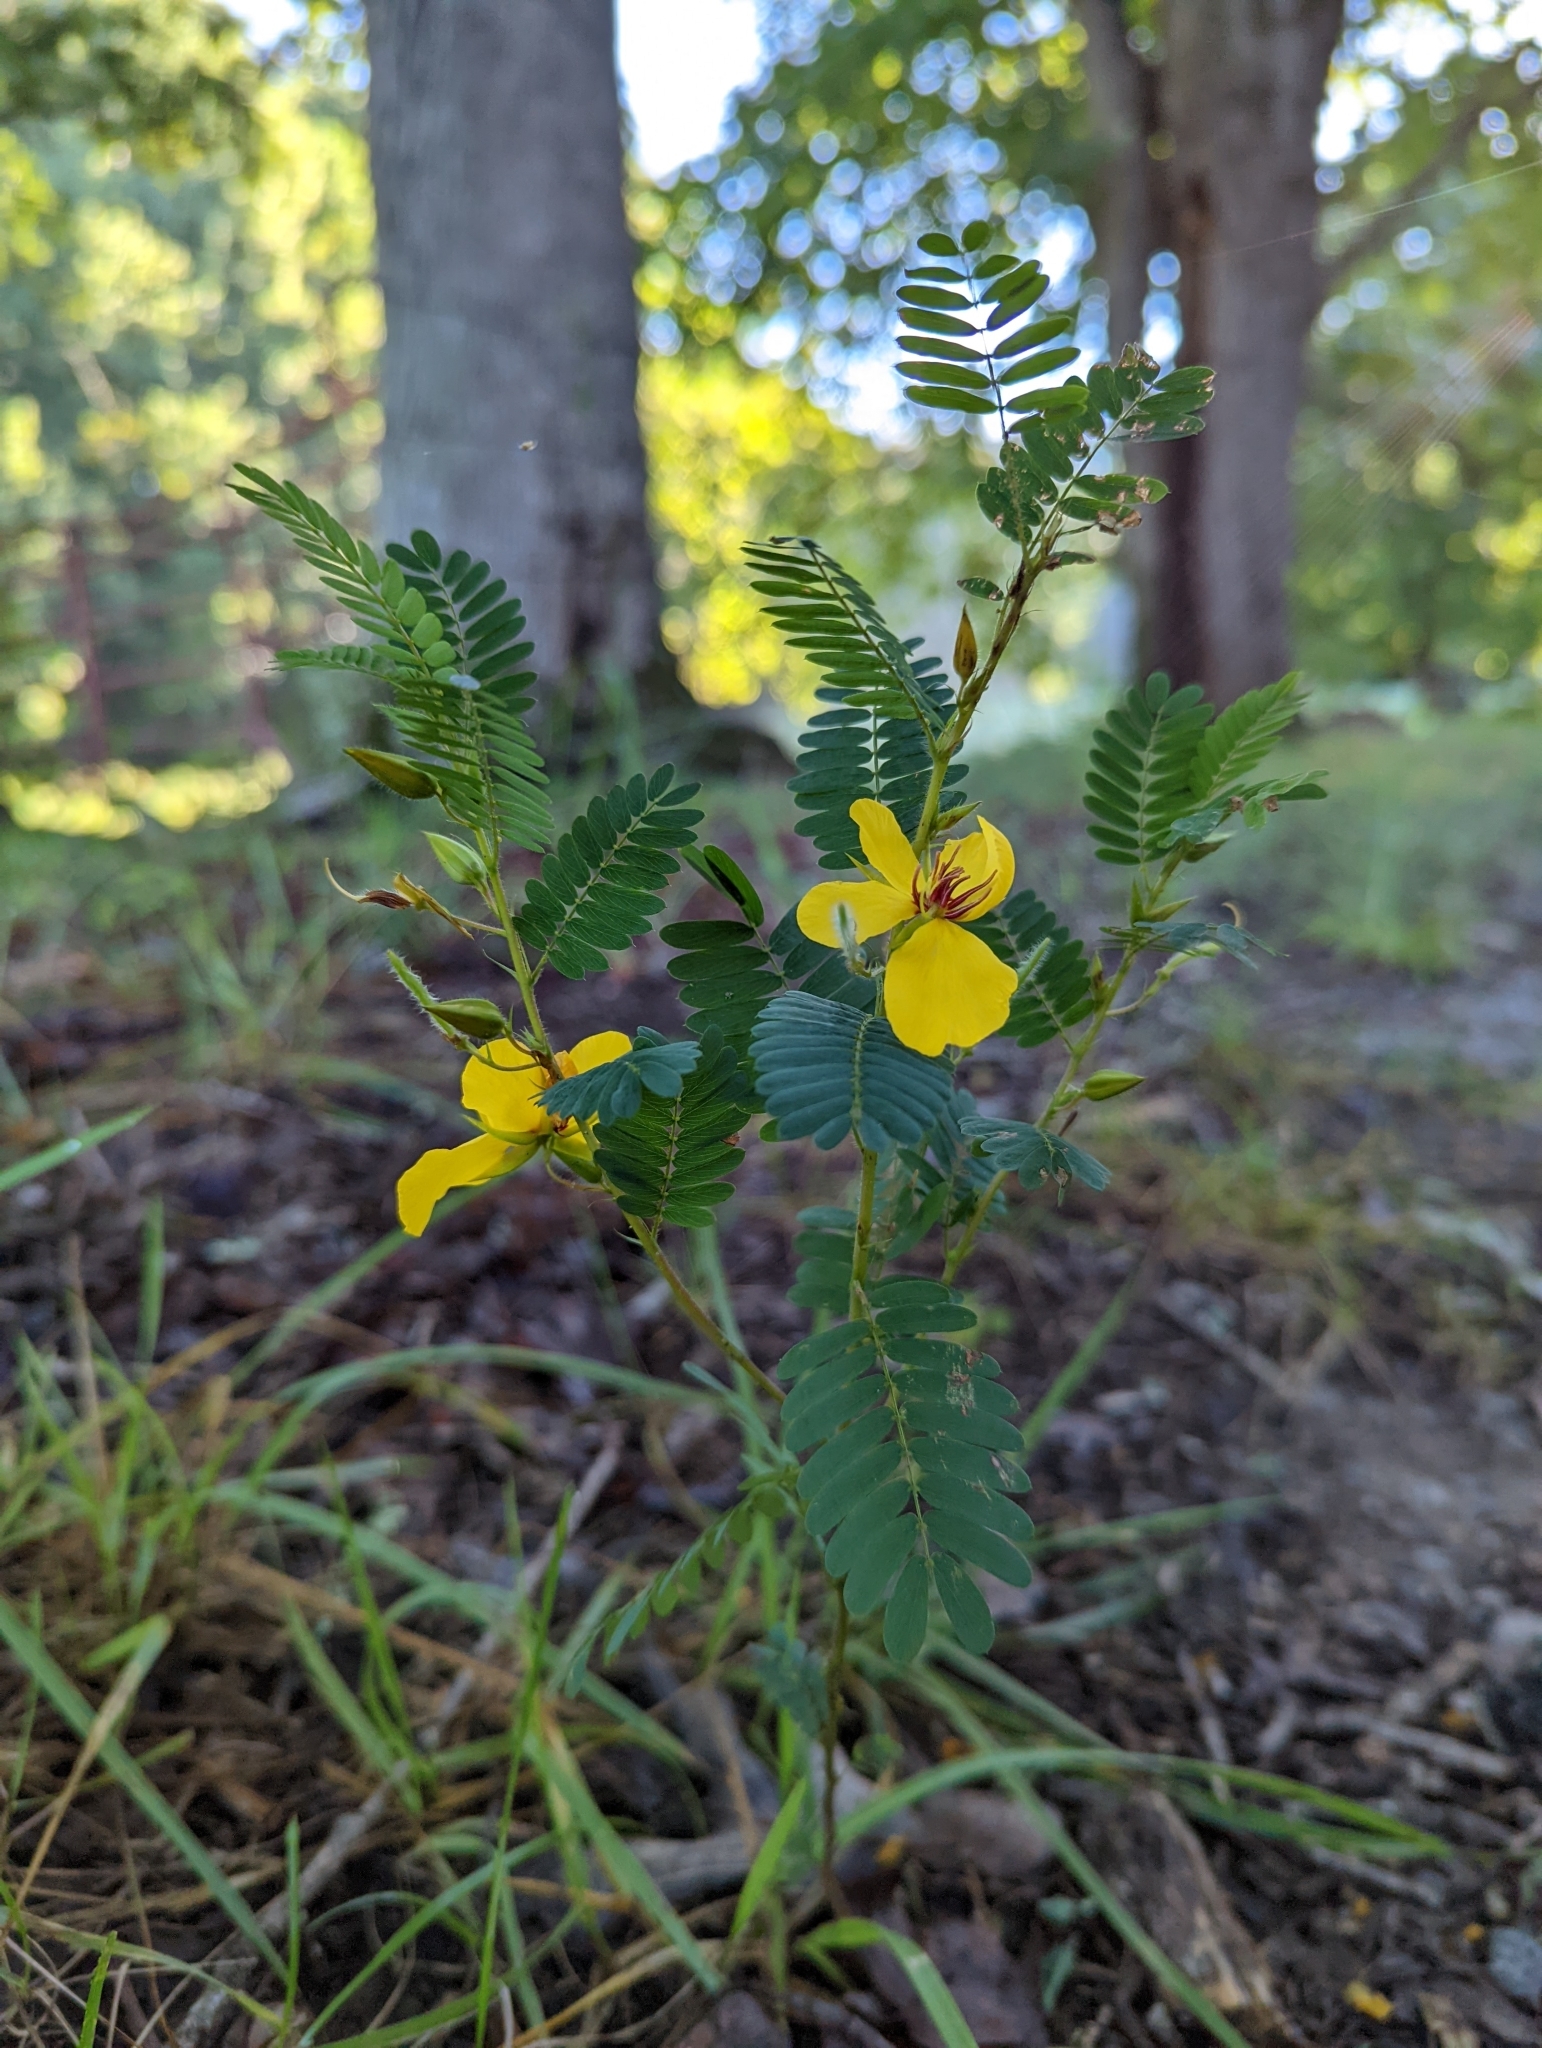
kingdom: Plantae
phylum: Tracheophyta
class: Magnoliopsida
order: Fabales
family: Fabaceae
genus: Chamaecrista
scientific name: Chamaecrista fasciculata
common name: Golden cassia
